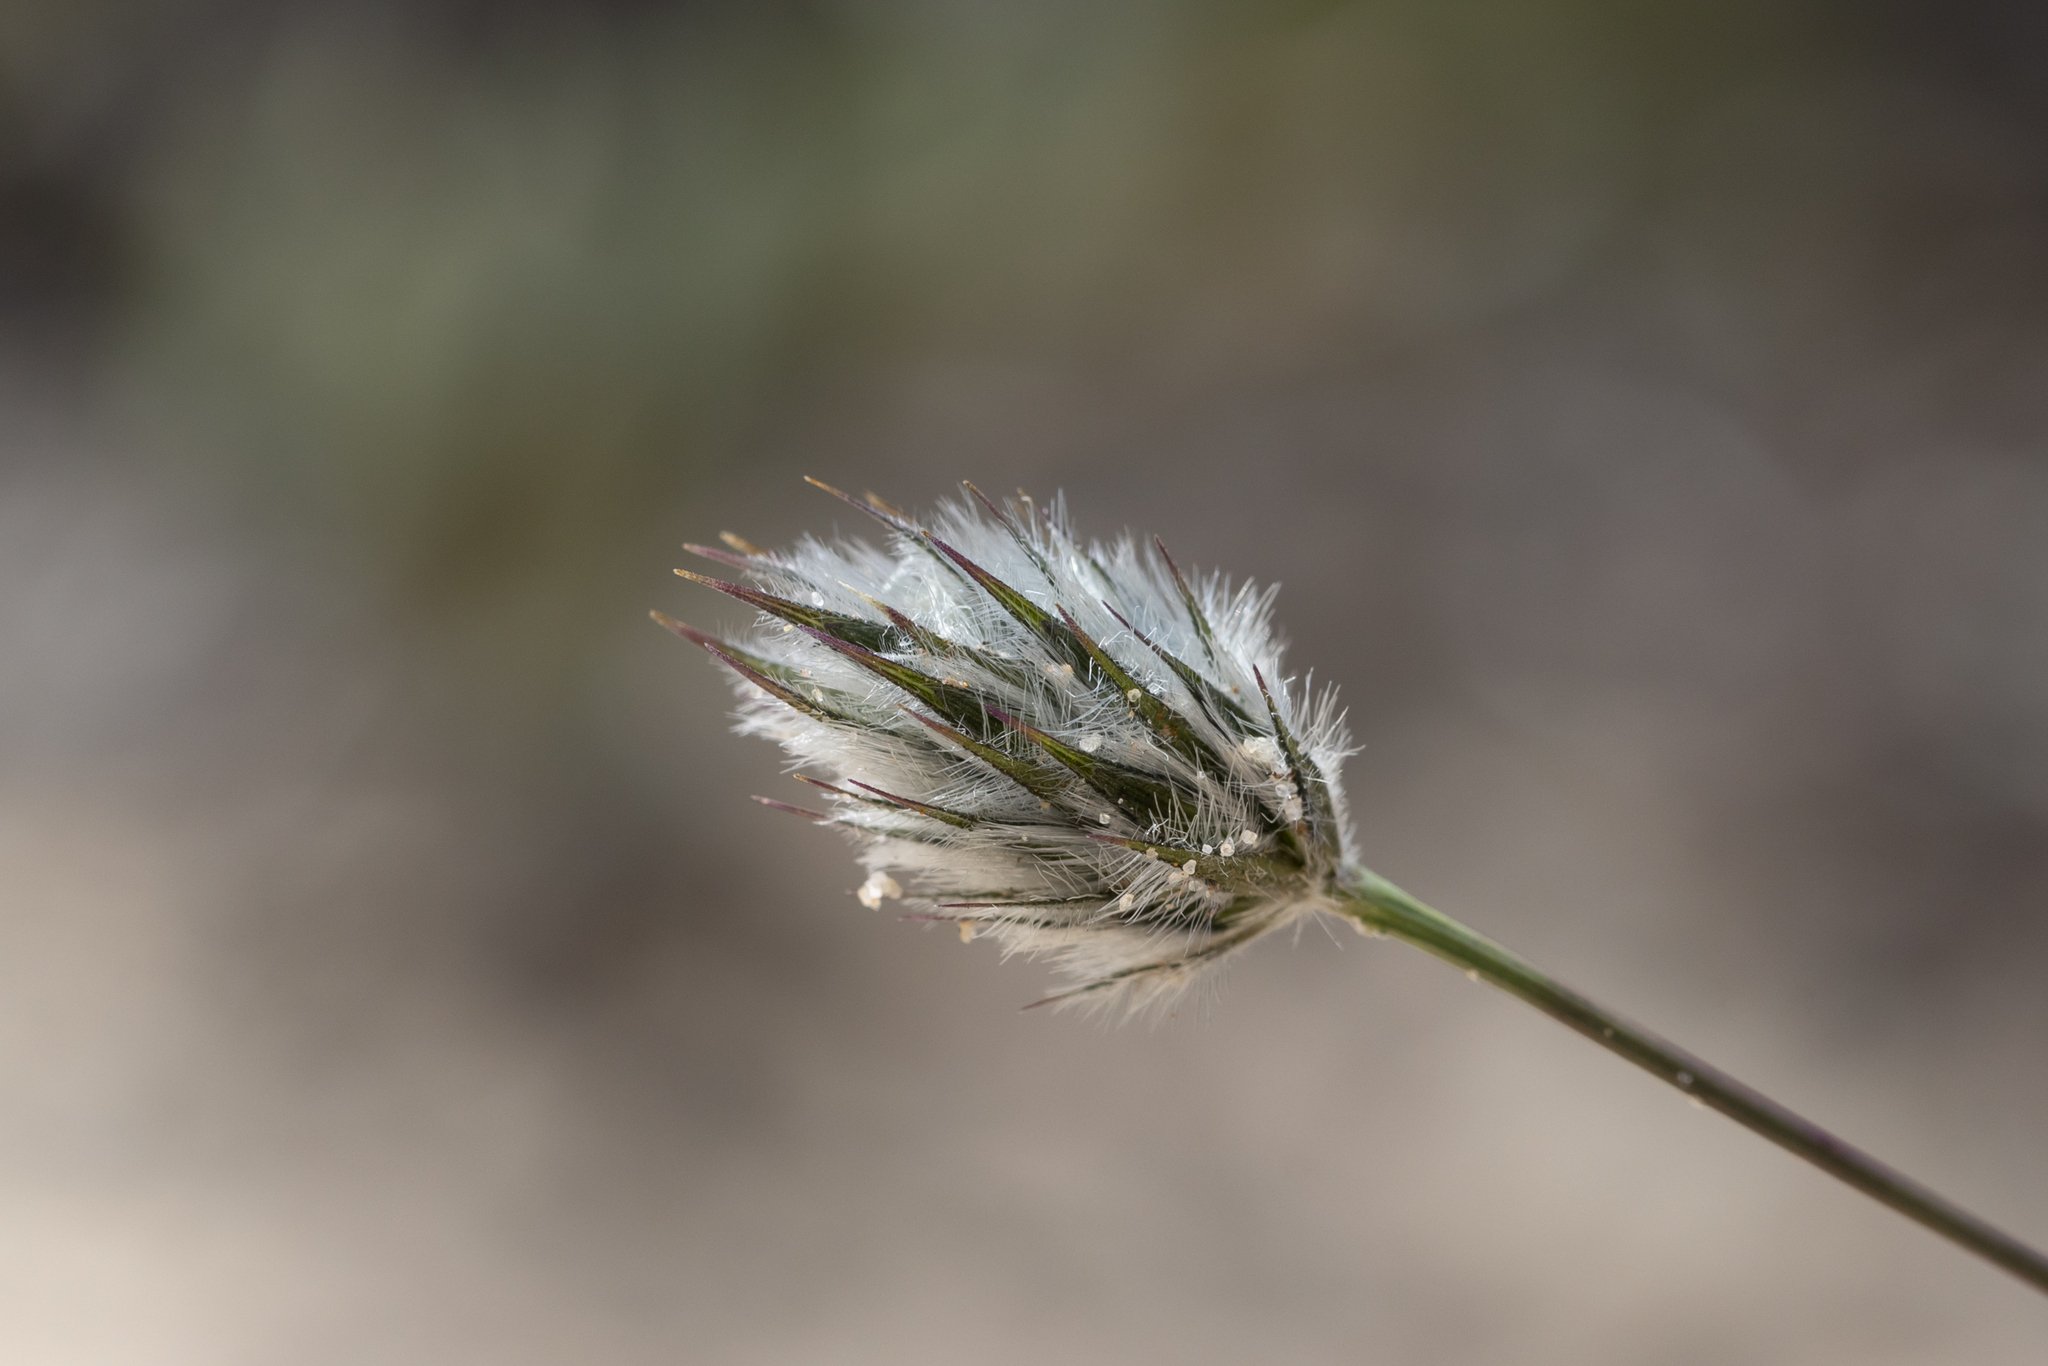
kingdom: Plantae
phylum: Tracheophyta
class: Liliopsida
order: Poales
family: Poaceae
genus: Neurachne
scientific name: Neurachne alopecuroidea
